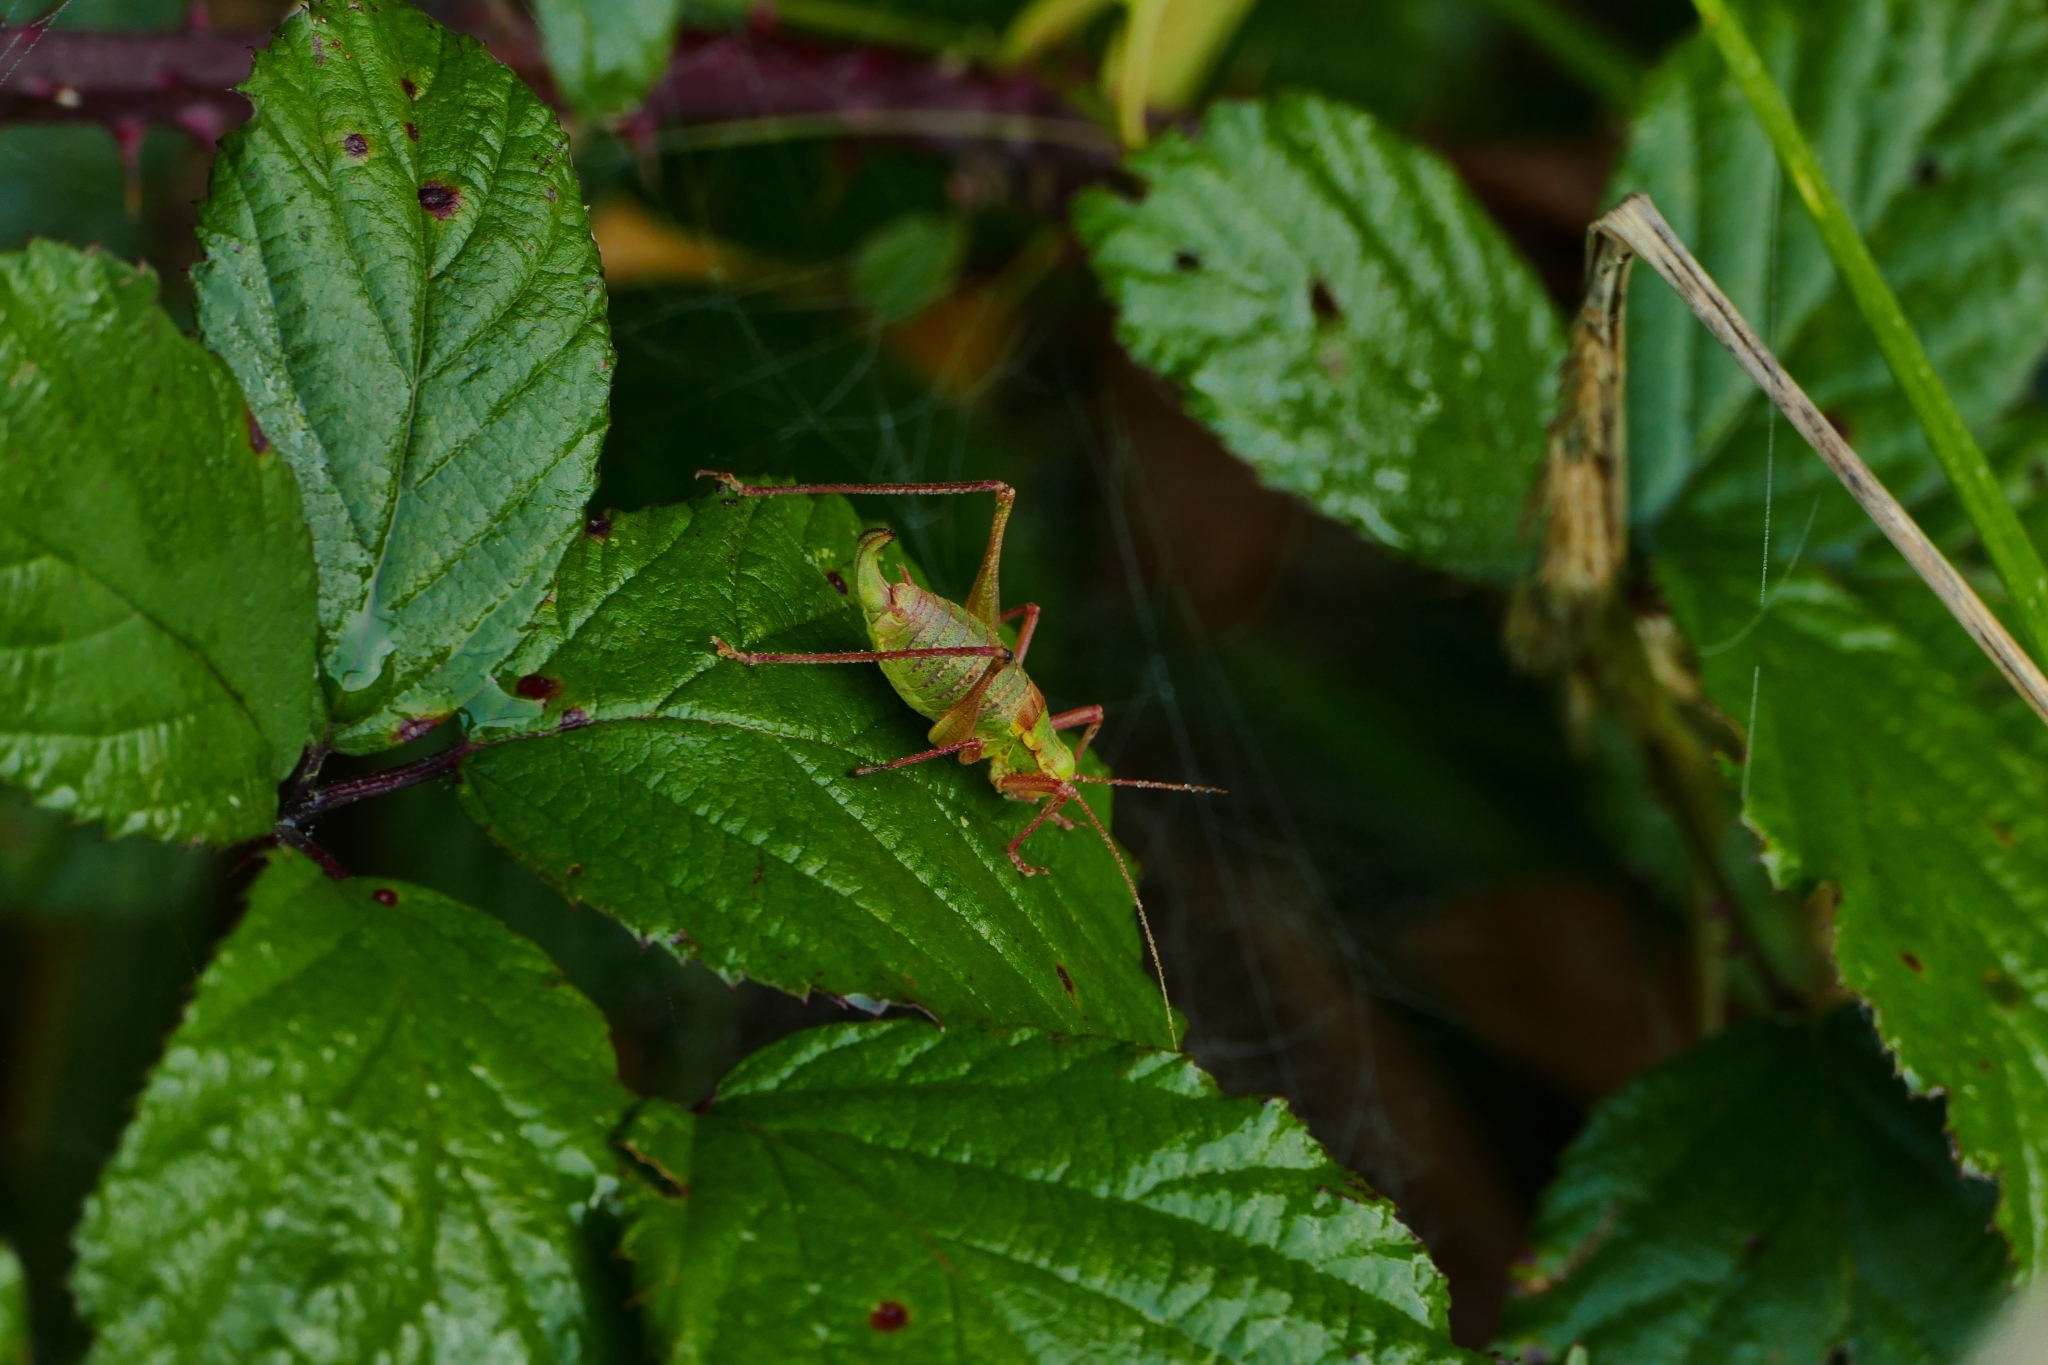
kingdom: Animalia
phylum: Arthropoda
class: Insecta
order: Orthoptera
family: Tettigoniidae
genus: Barbitistes
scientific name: Barbitistes serricauda
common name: Saw-tailed bush-cricket
